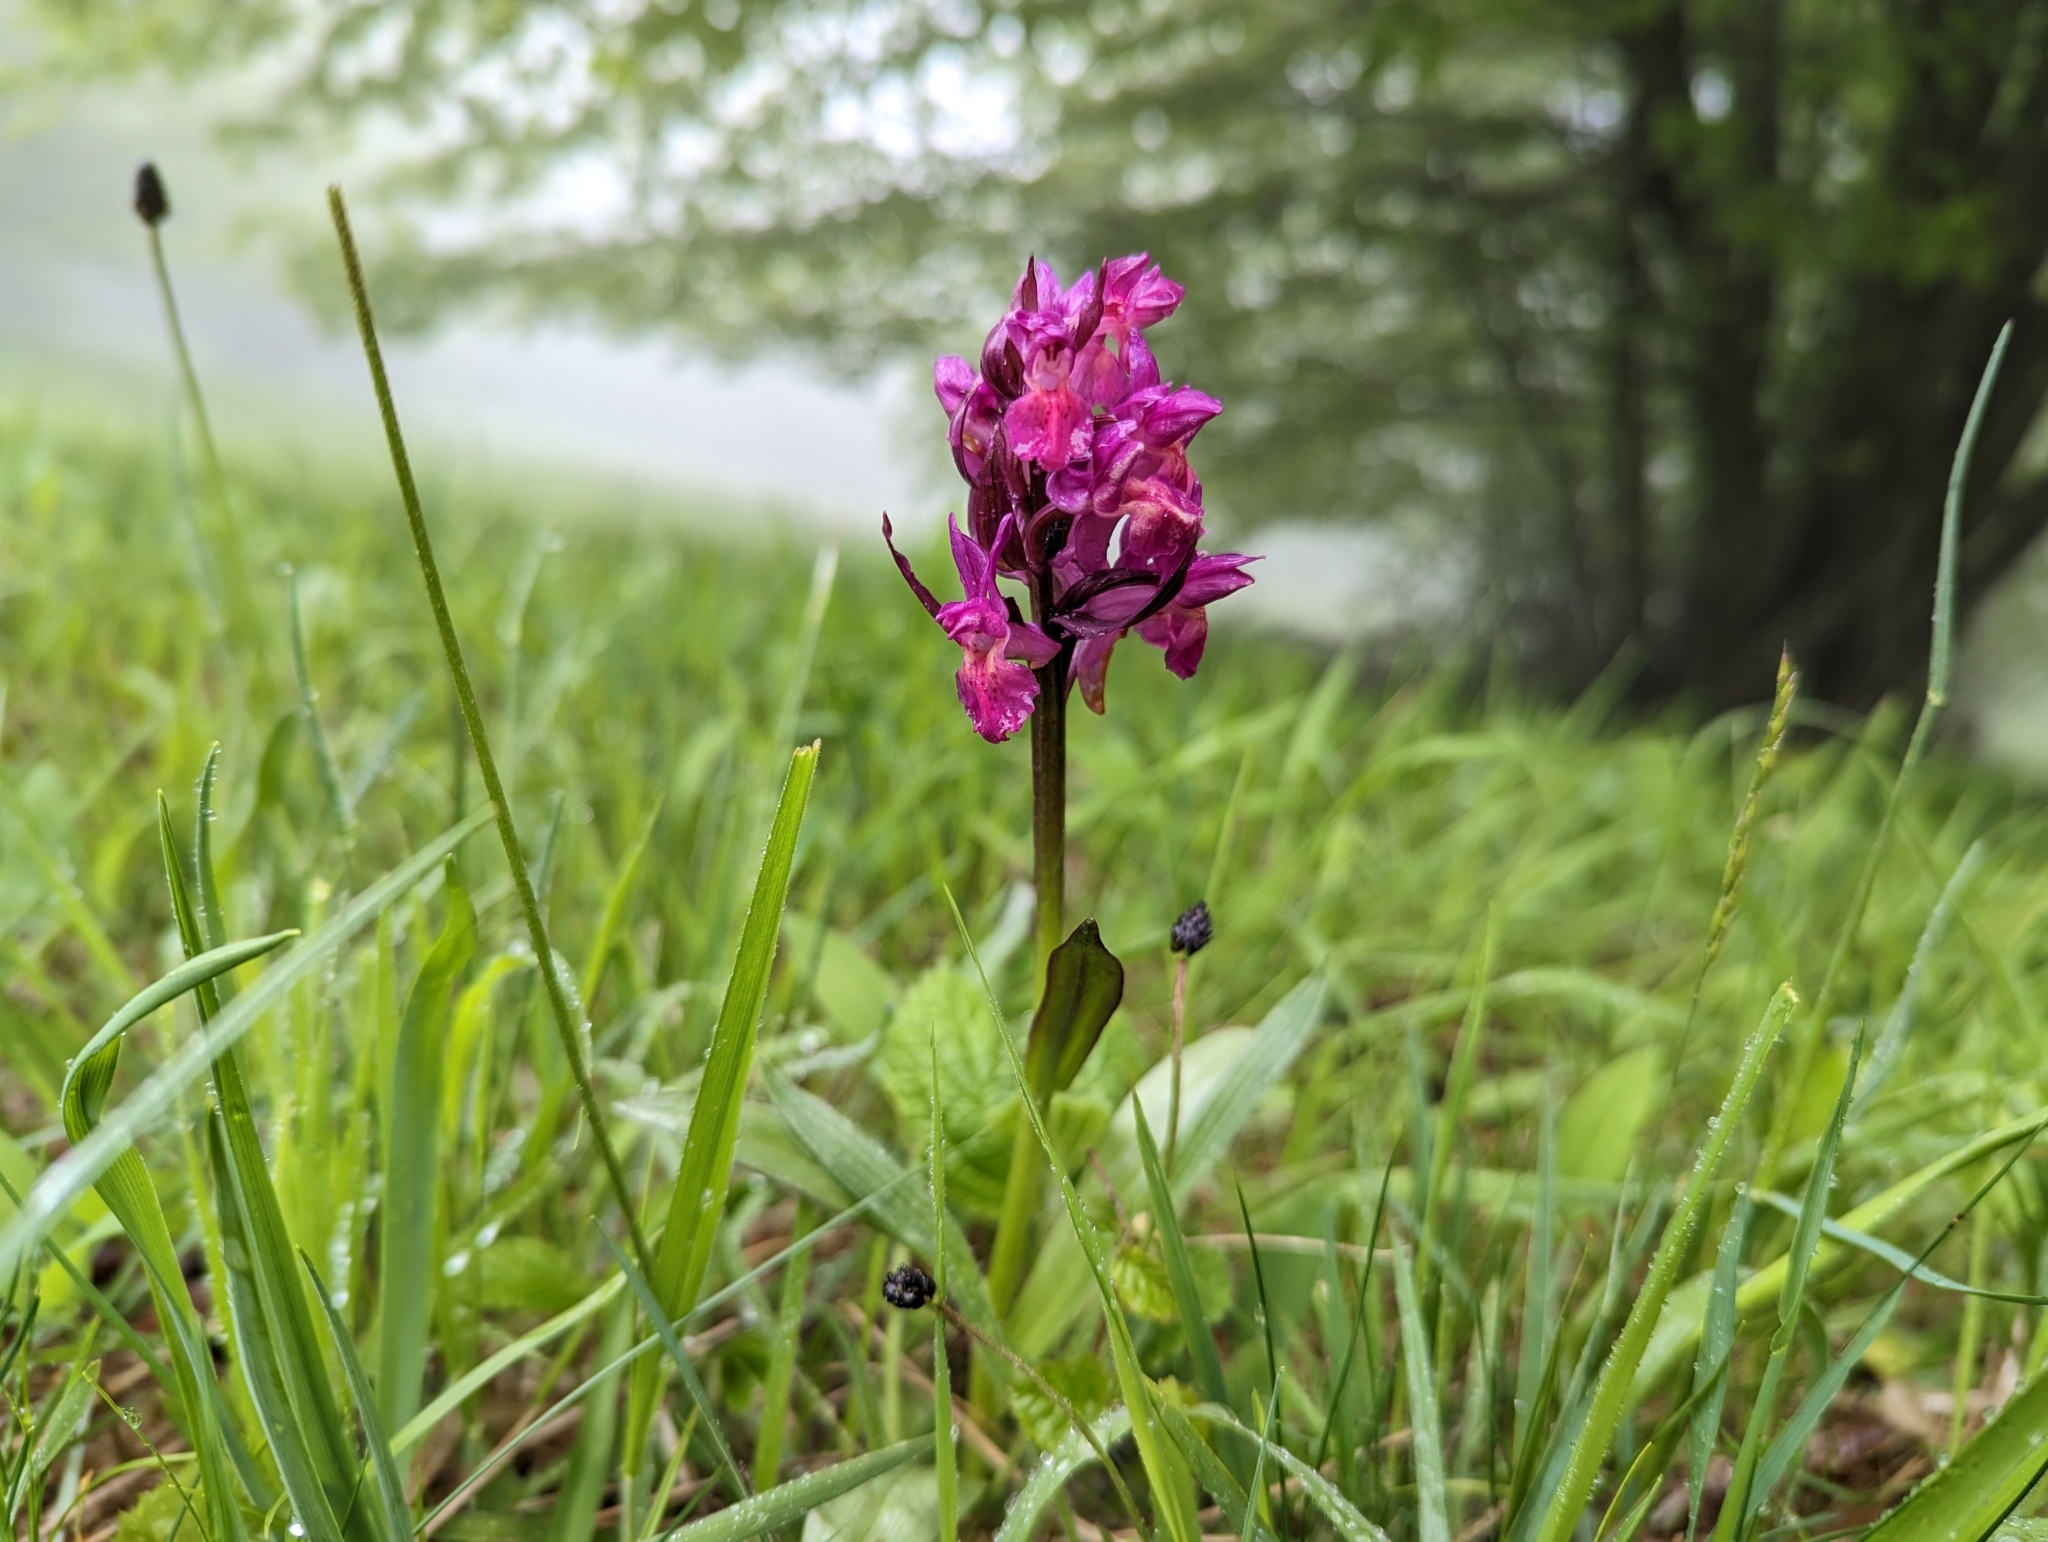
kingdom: Plantae
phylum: Tracheophyta
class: Liliopsida
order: Asparagales
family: Orchidaceae
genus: Dactylorhiza
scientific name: Dactylorhiza sambucina
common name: Elder-flowered orchid
